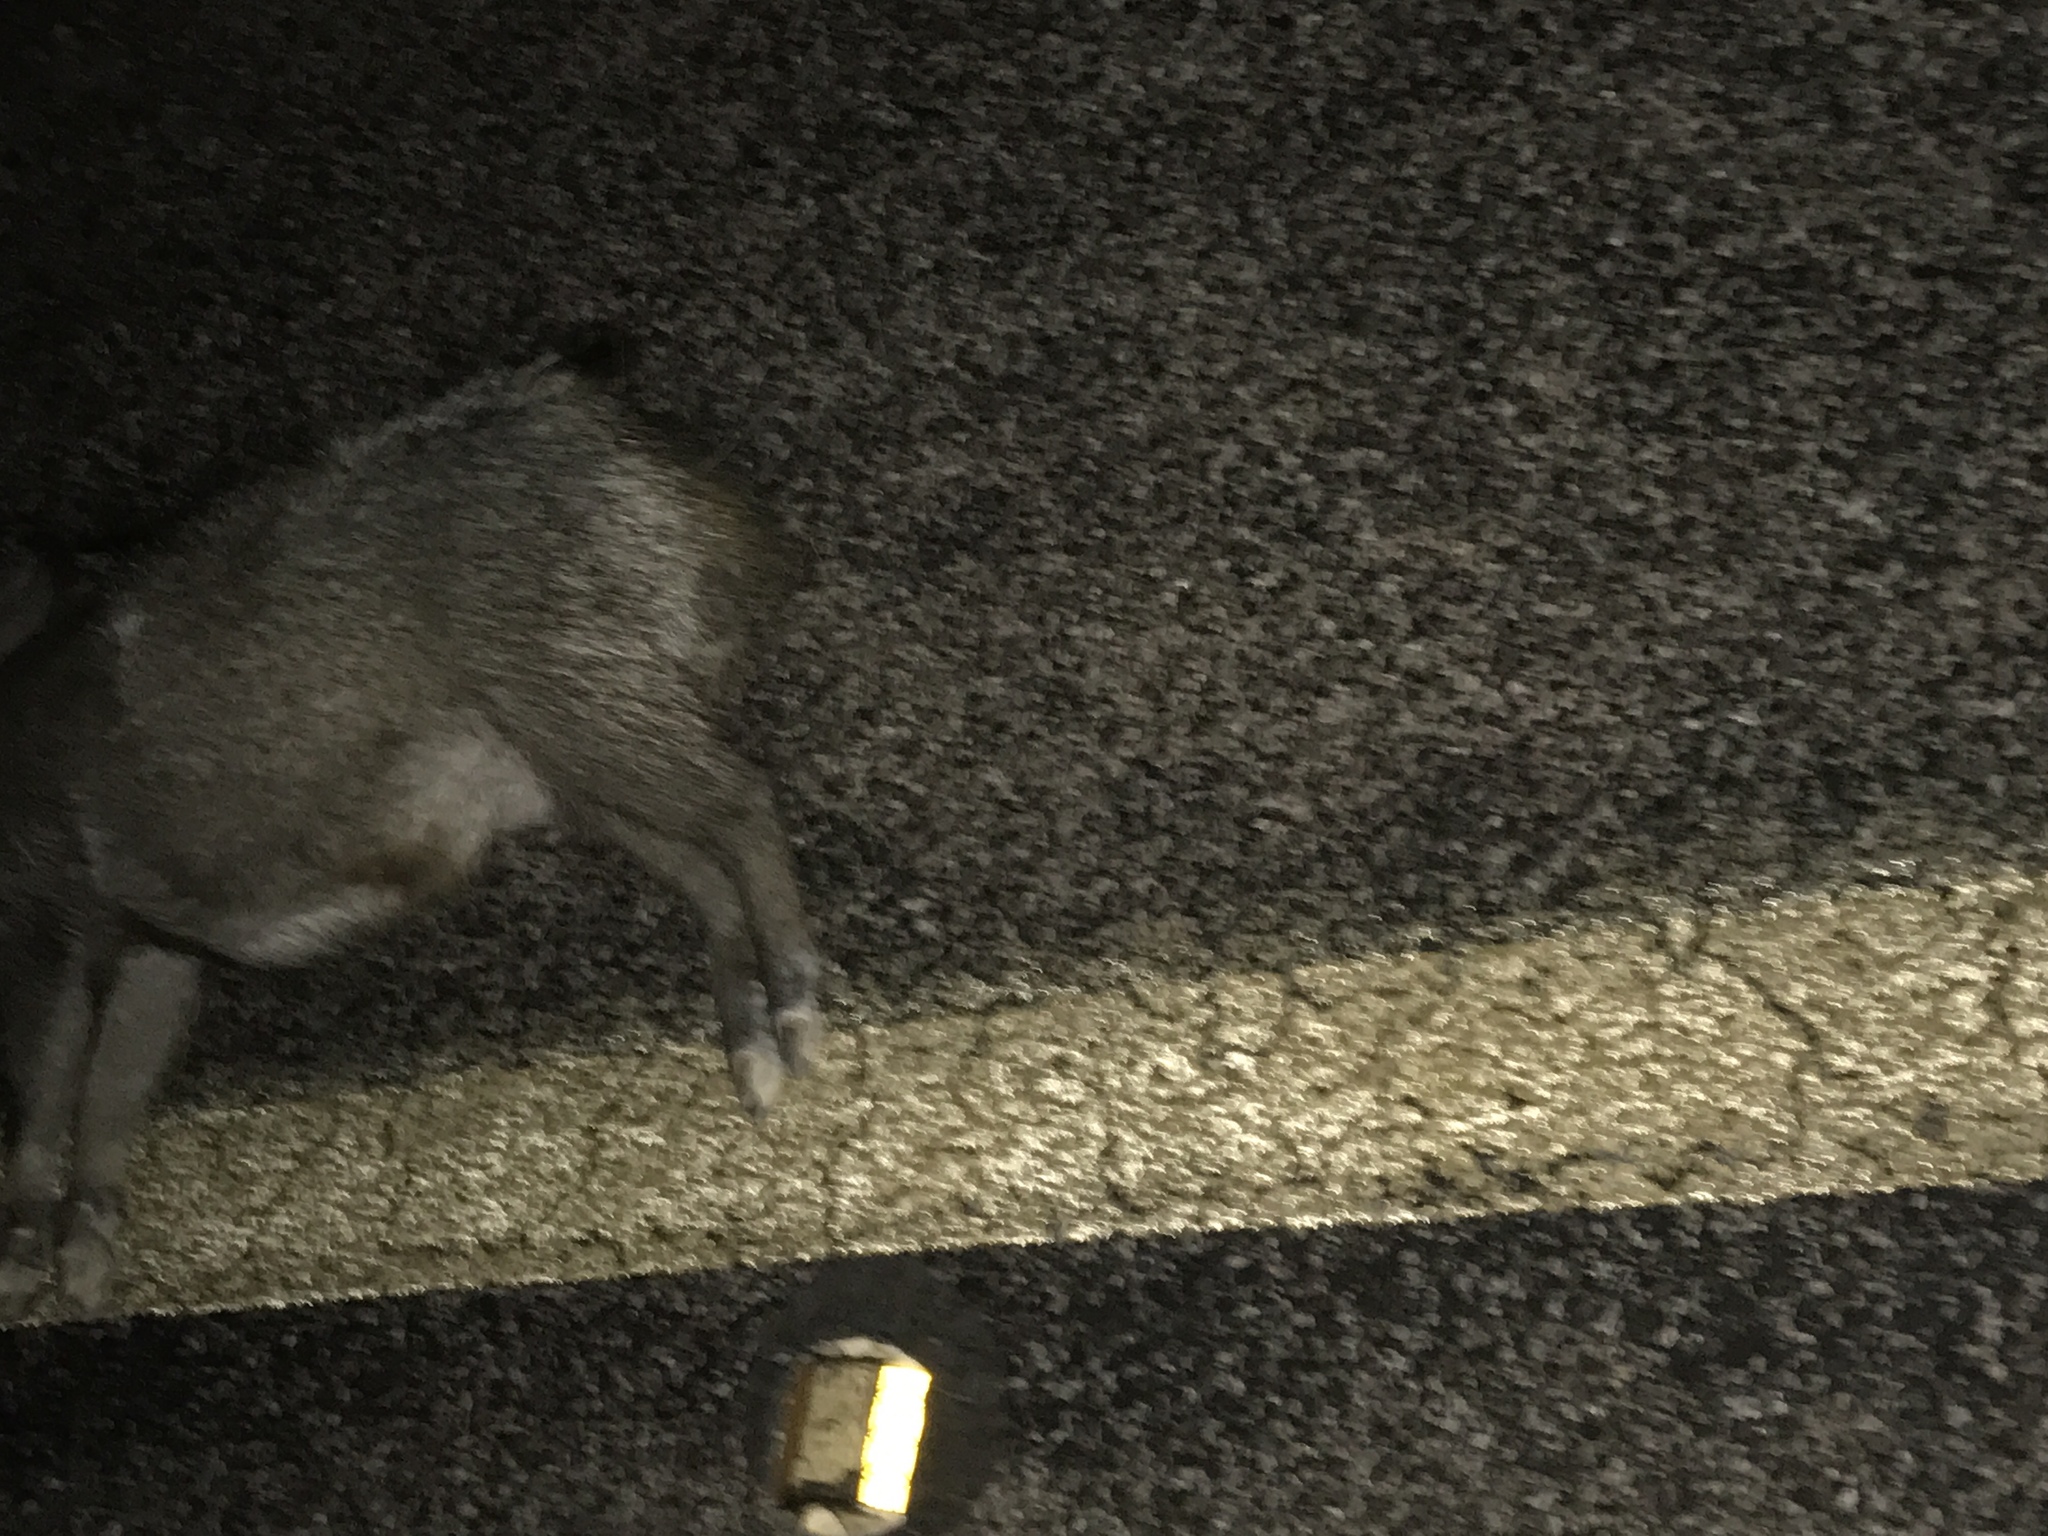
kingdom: Animalia
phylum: Chordata
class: Mammalia
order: Artiodactyla
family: Tayassuidae
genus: Pecari
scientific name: Pecari tajacu
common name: Collared peccary
